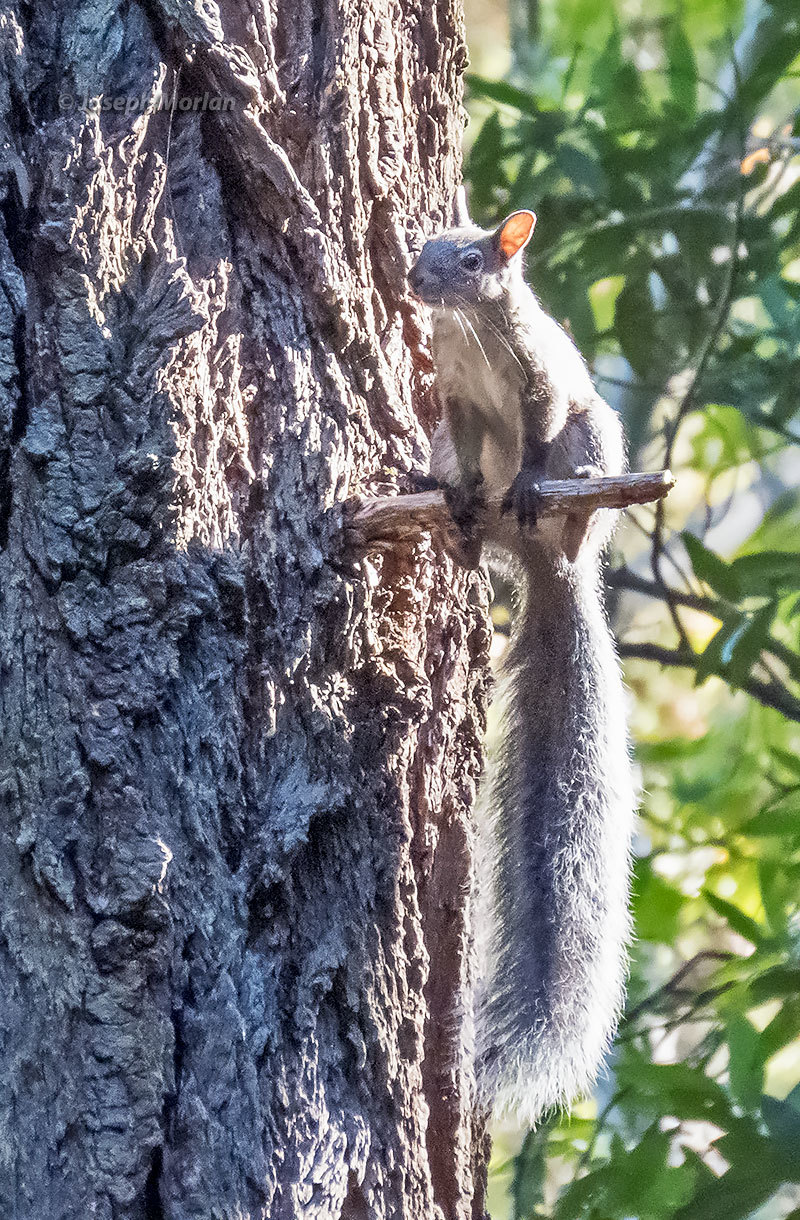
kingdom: Animalia
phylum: Chordata
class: Mammalia
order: Rodentia
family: Sciuridae
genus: Sciurus
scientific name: Sciurus griseus
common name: Western gray squirrel
